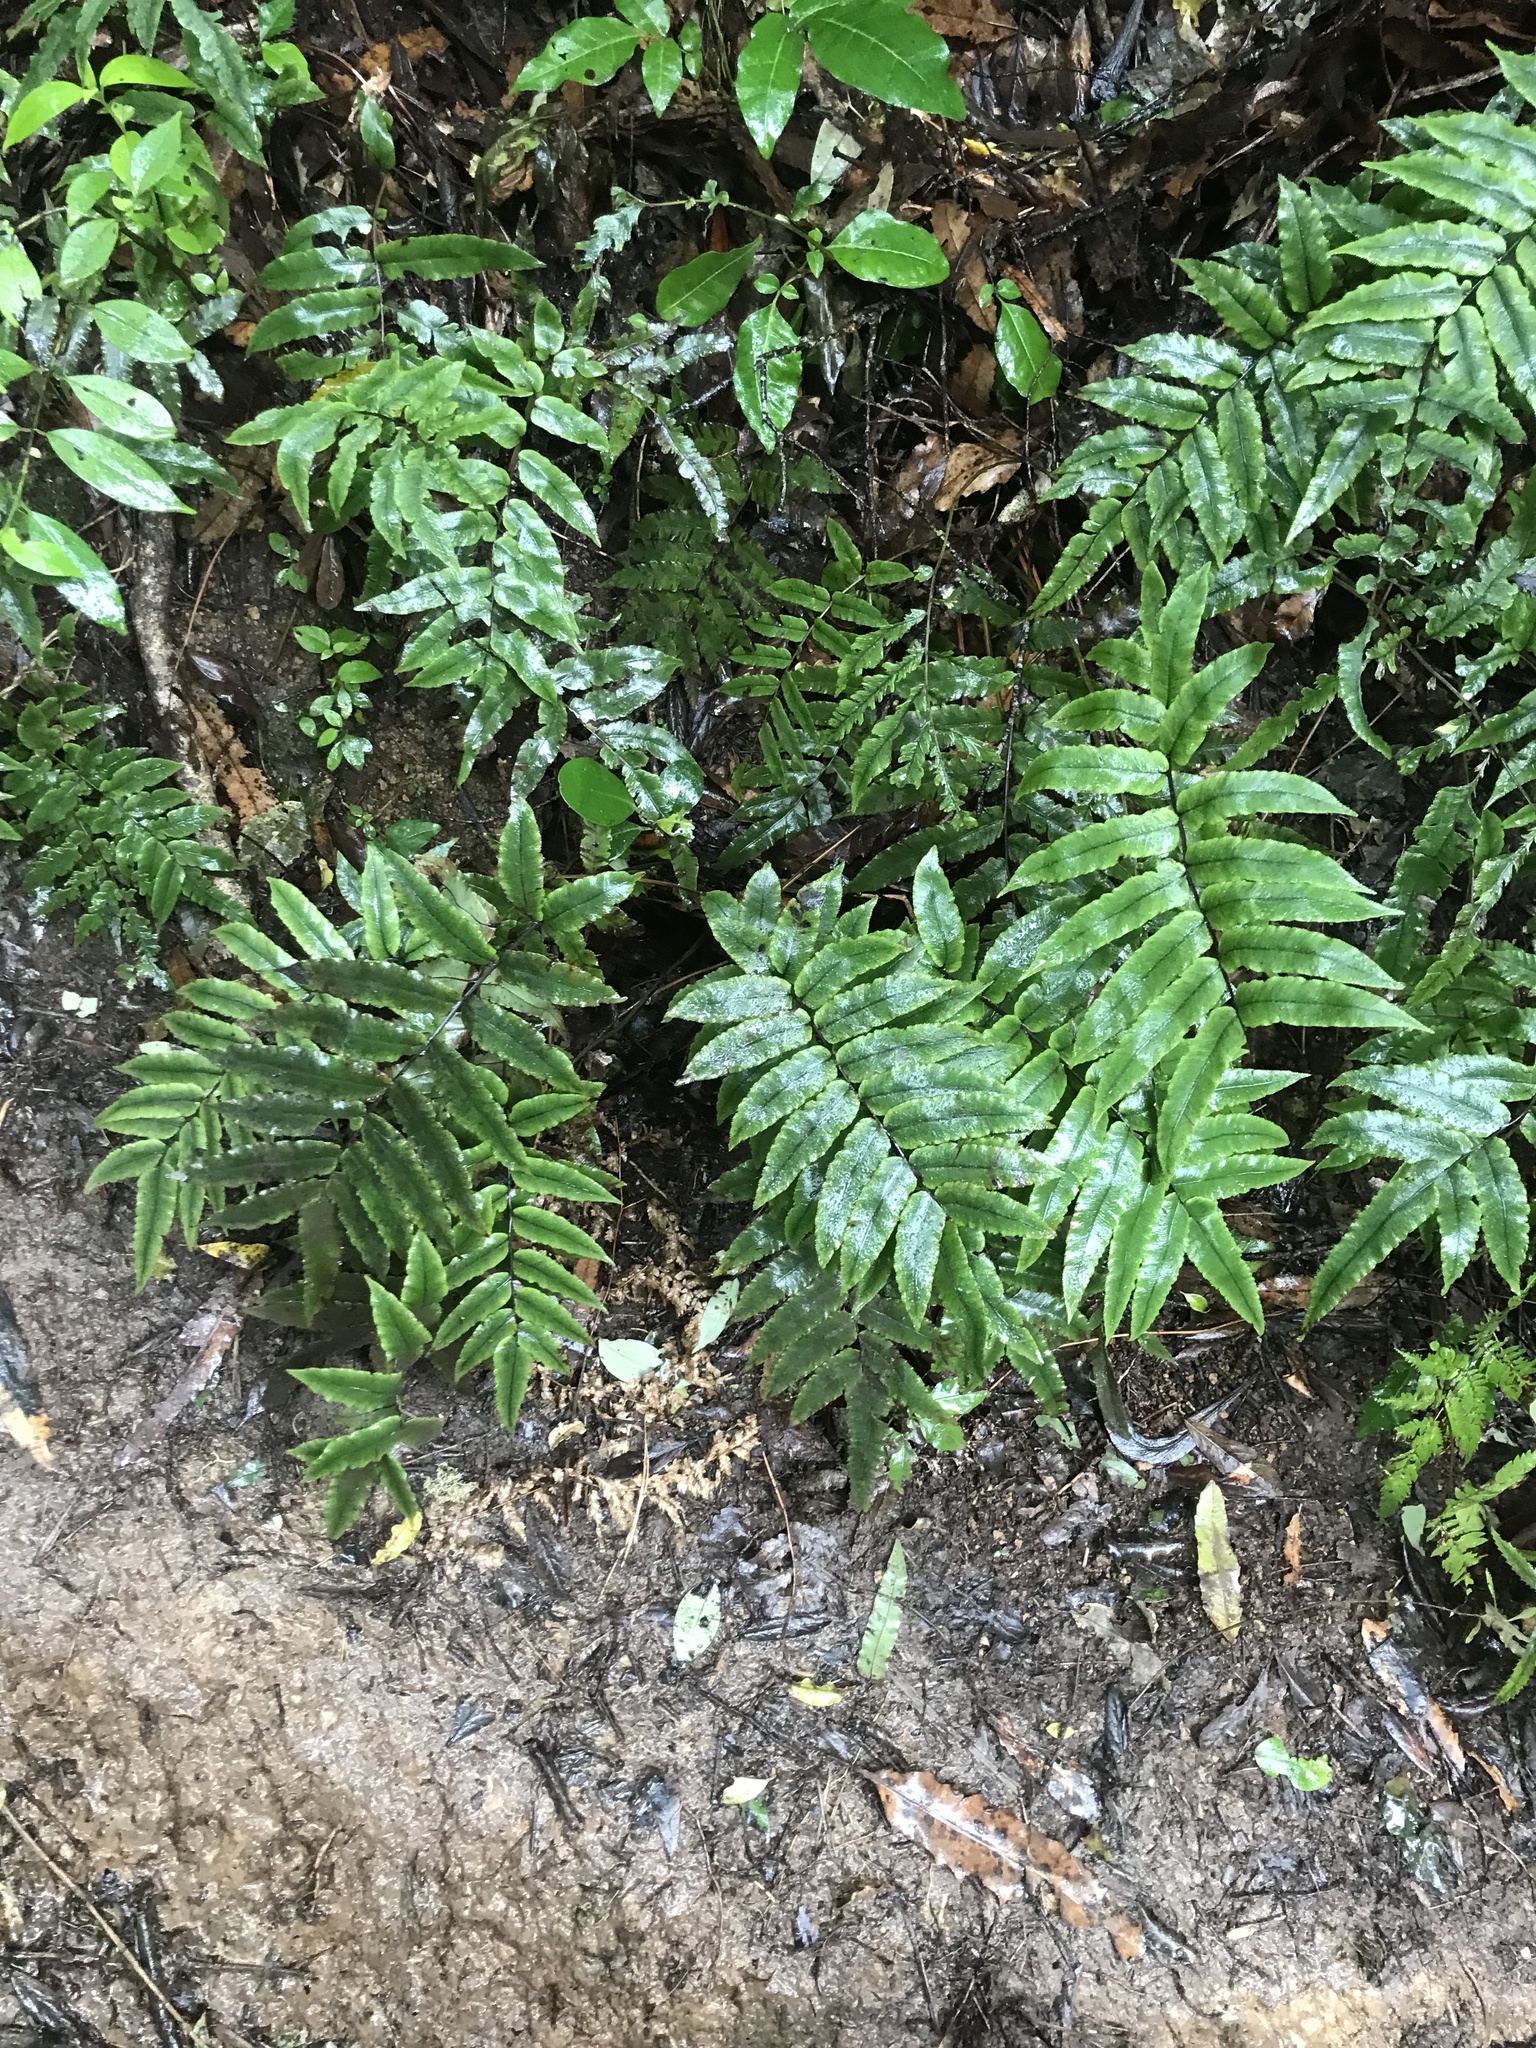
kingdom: Plantae
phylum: Tracheophyta
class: Polypodiopsida
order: Polypodiales
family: Blechnaceae
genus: Parablechnum
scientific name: Parablechnum procerum
